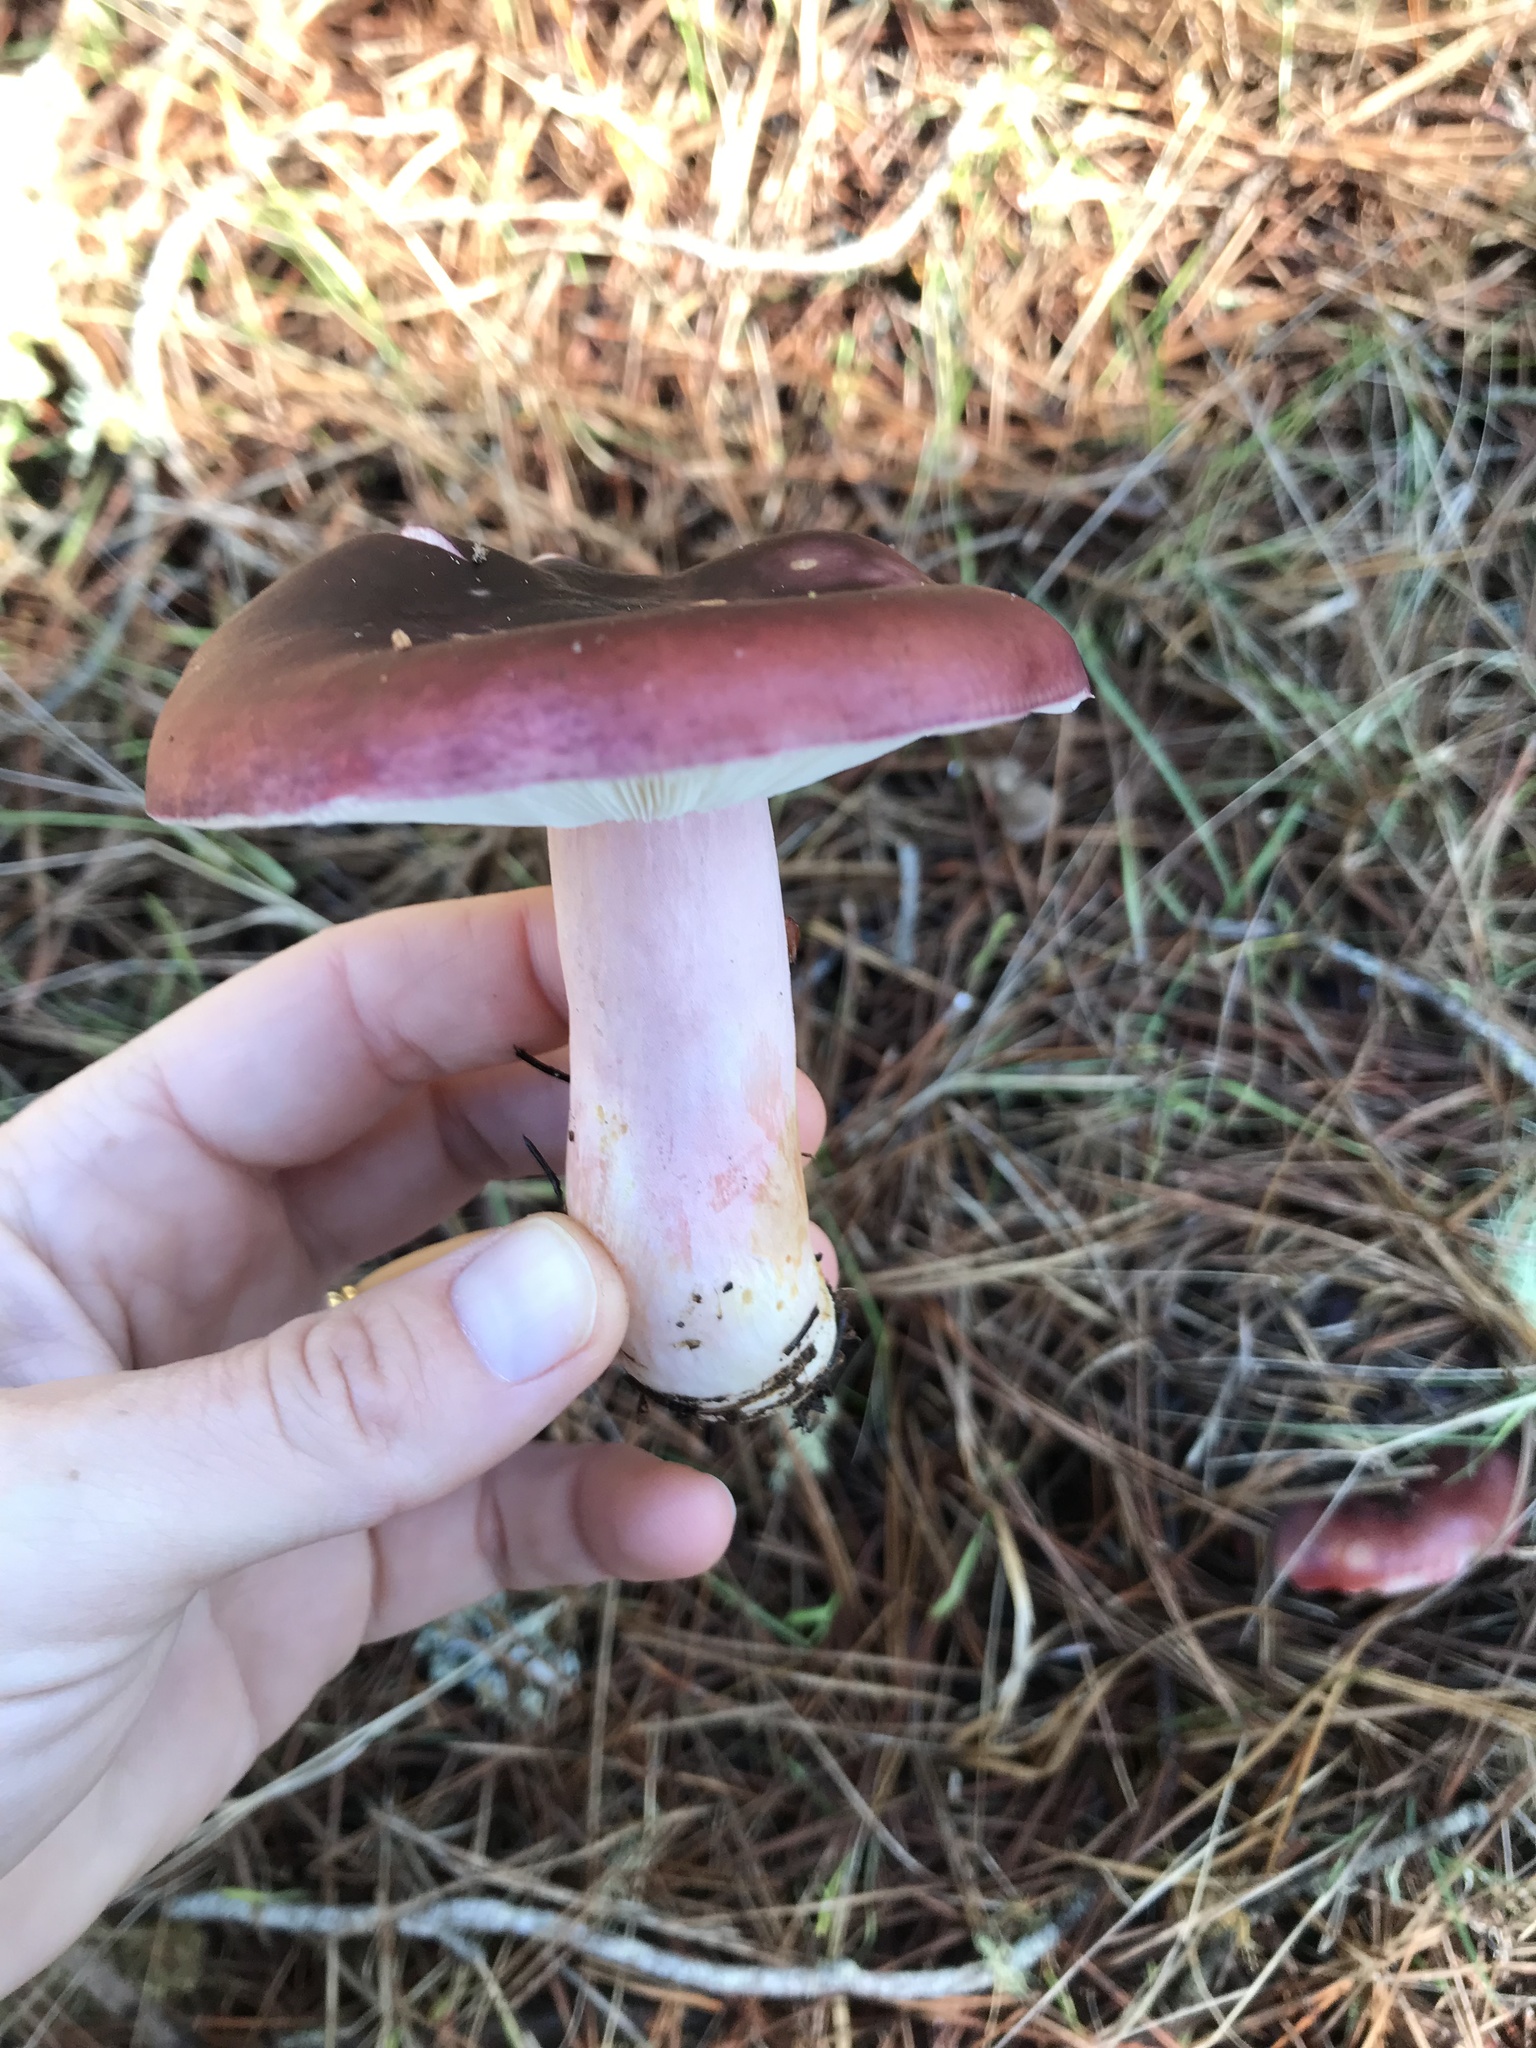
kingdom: Fungi
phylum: Basidiomycota
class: Agaricomycetes
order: Russulales
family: Russulaceae
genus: Russula
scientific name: Russula rhodocephala
